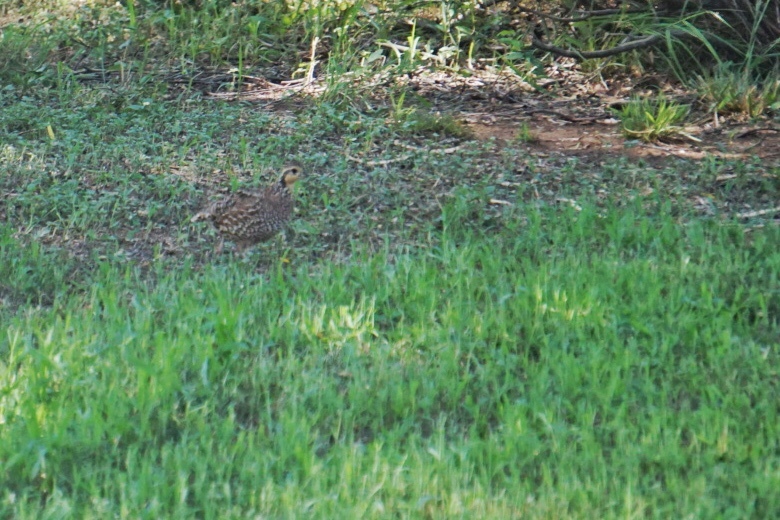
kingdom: Animalia
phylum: Chordata
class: Aves
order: Galliformes
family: Odontophoridae
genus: Colinus
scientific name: Colinus virginianus
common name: Northern bobwhite
